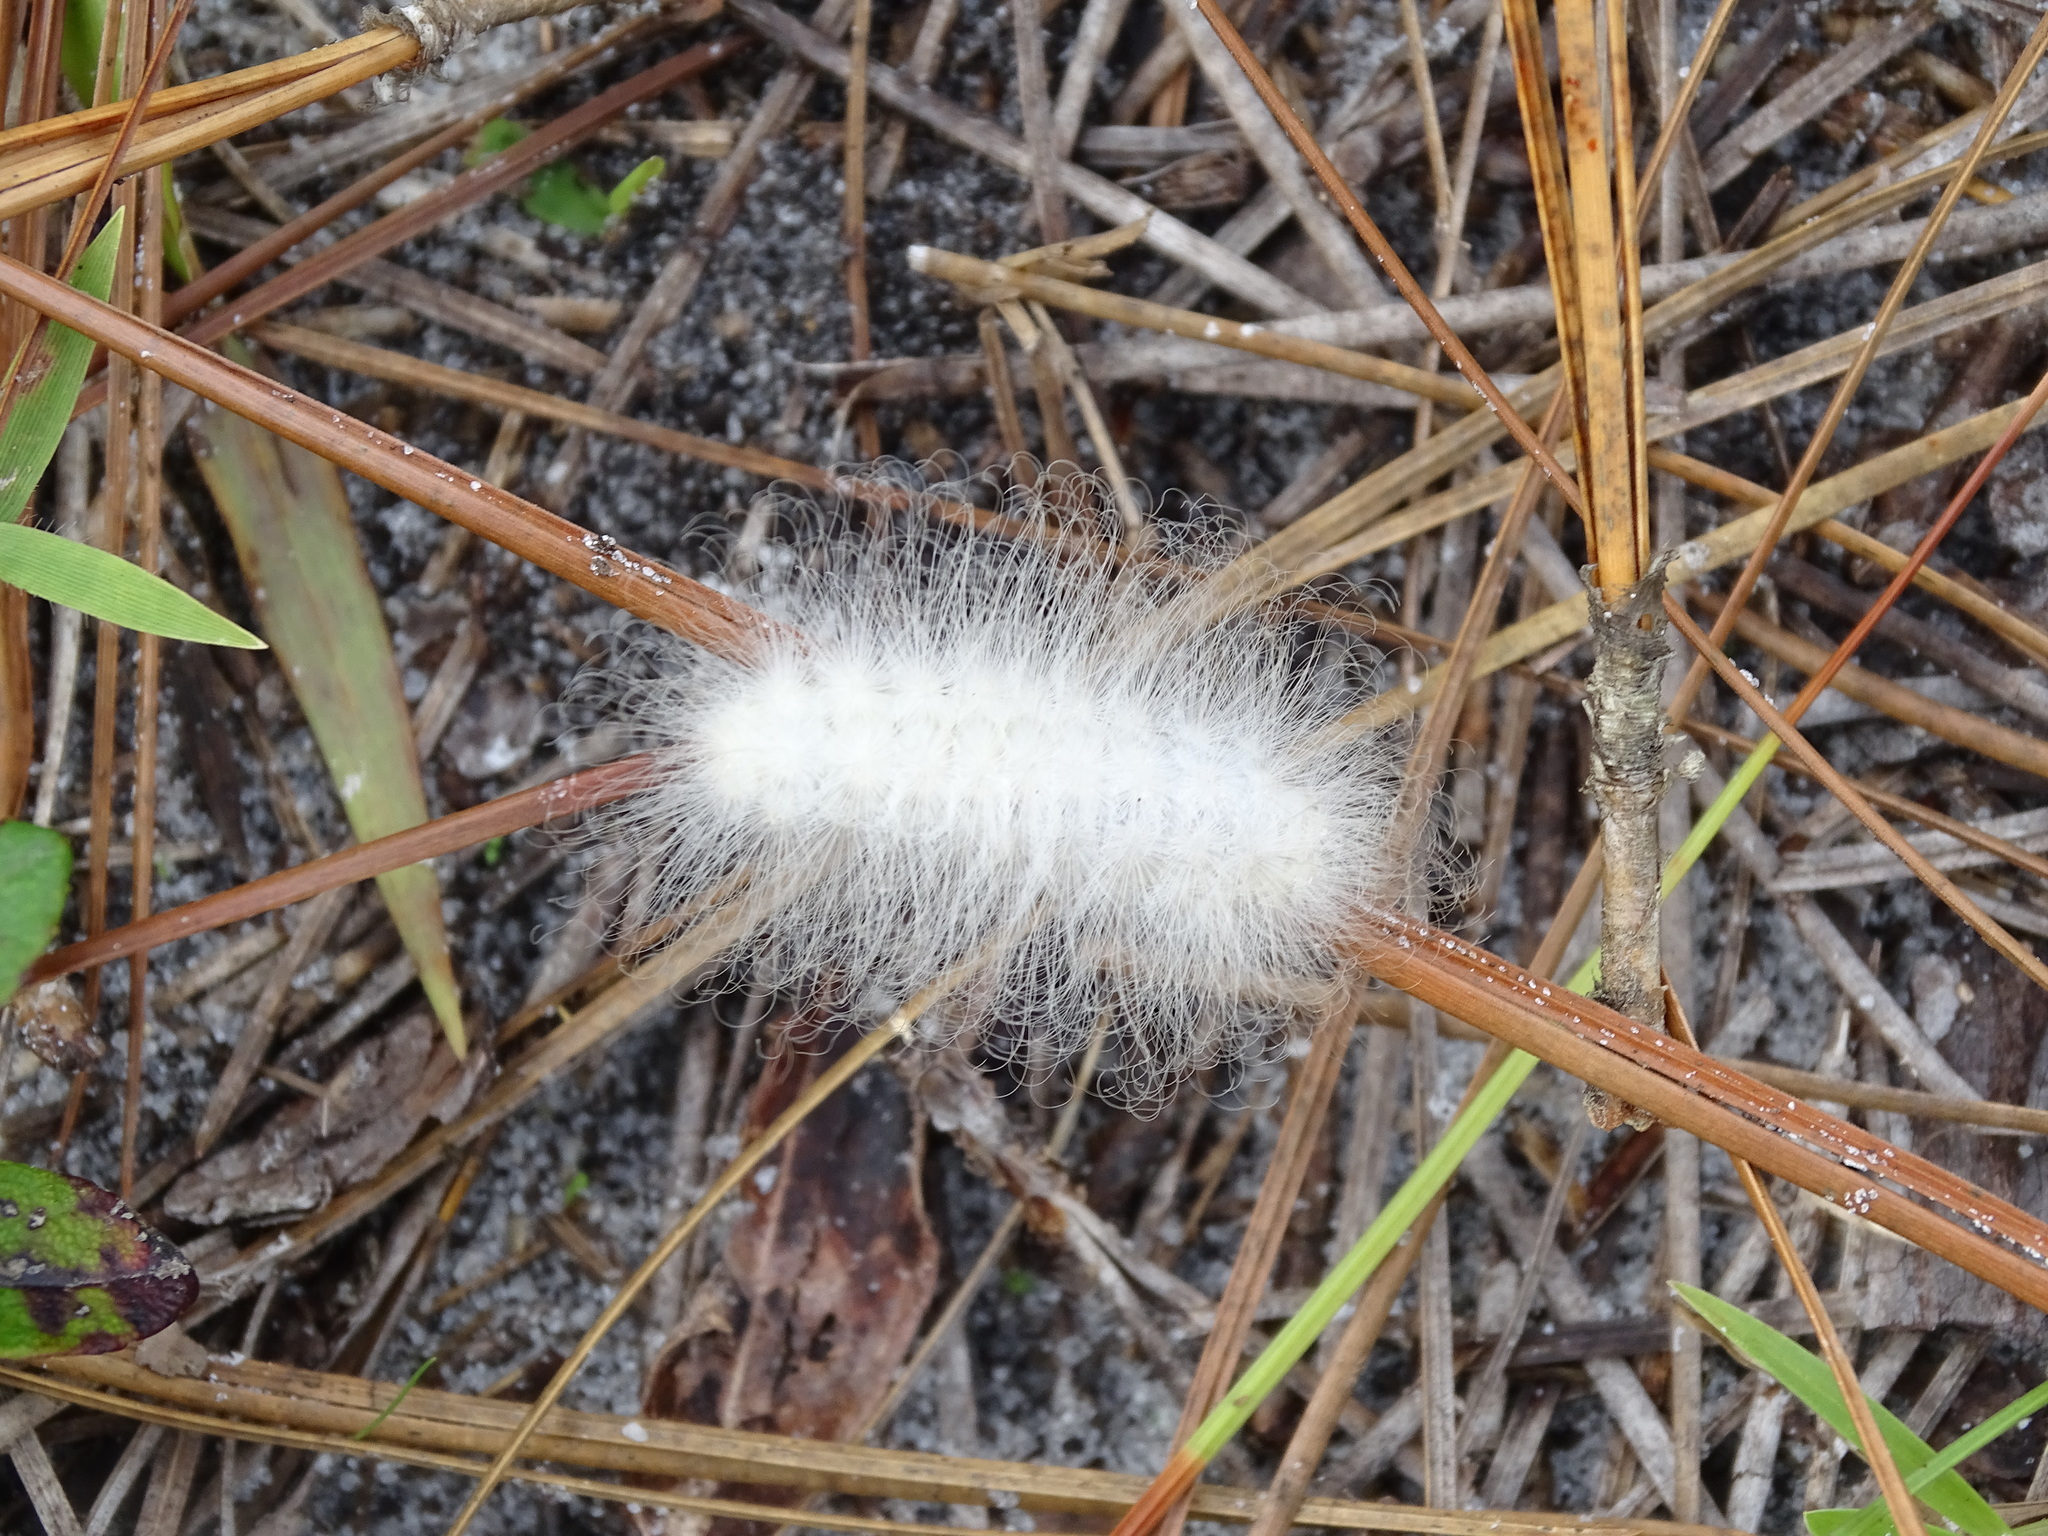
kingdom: Animalia
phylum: Arthropoda
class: Insecta
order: Lepidoptera
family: Megalopygidae
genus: Megalopyge
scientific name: Megalopyge
